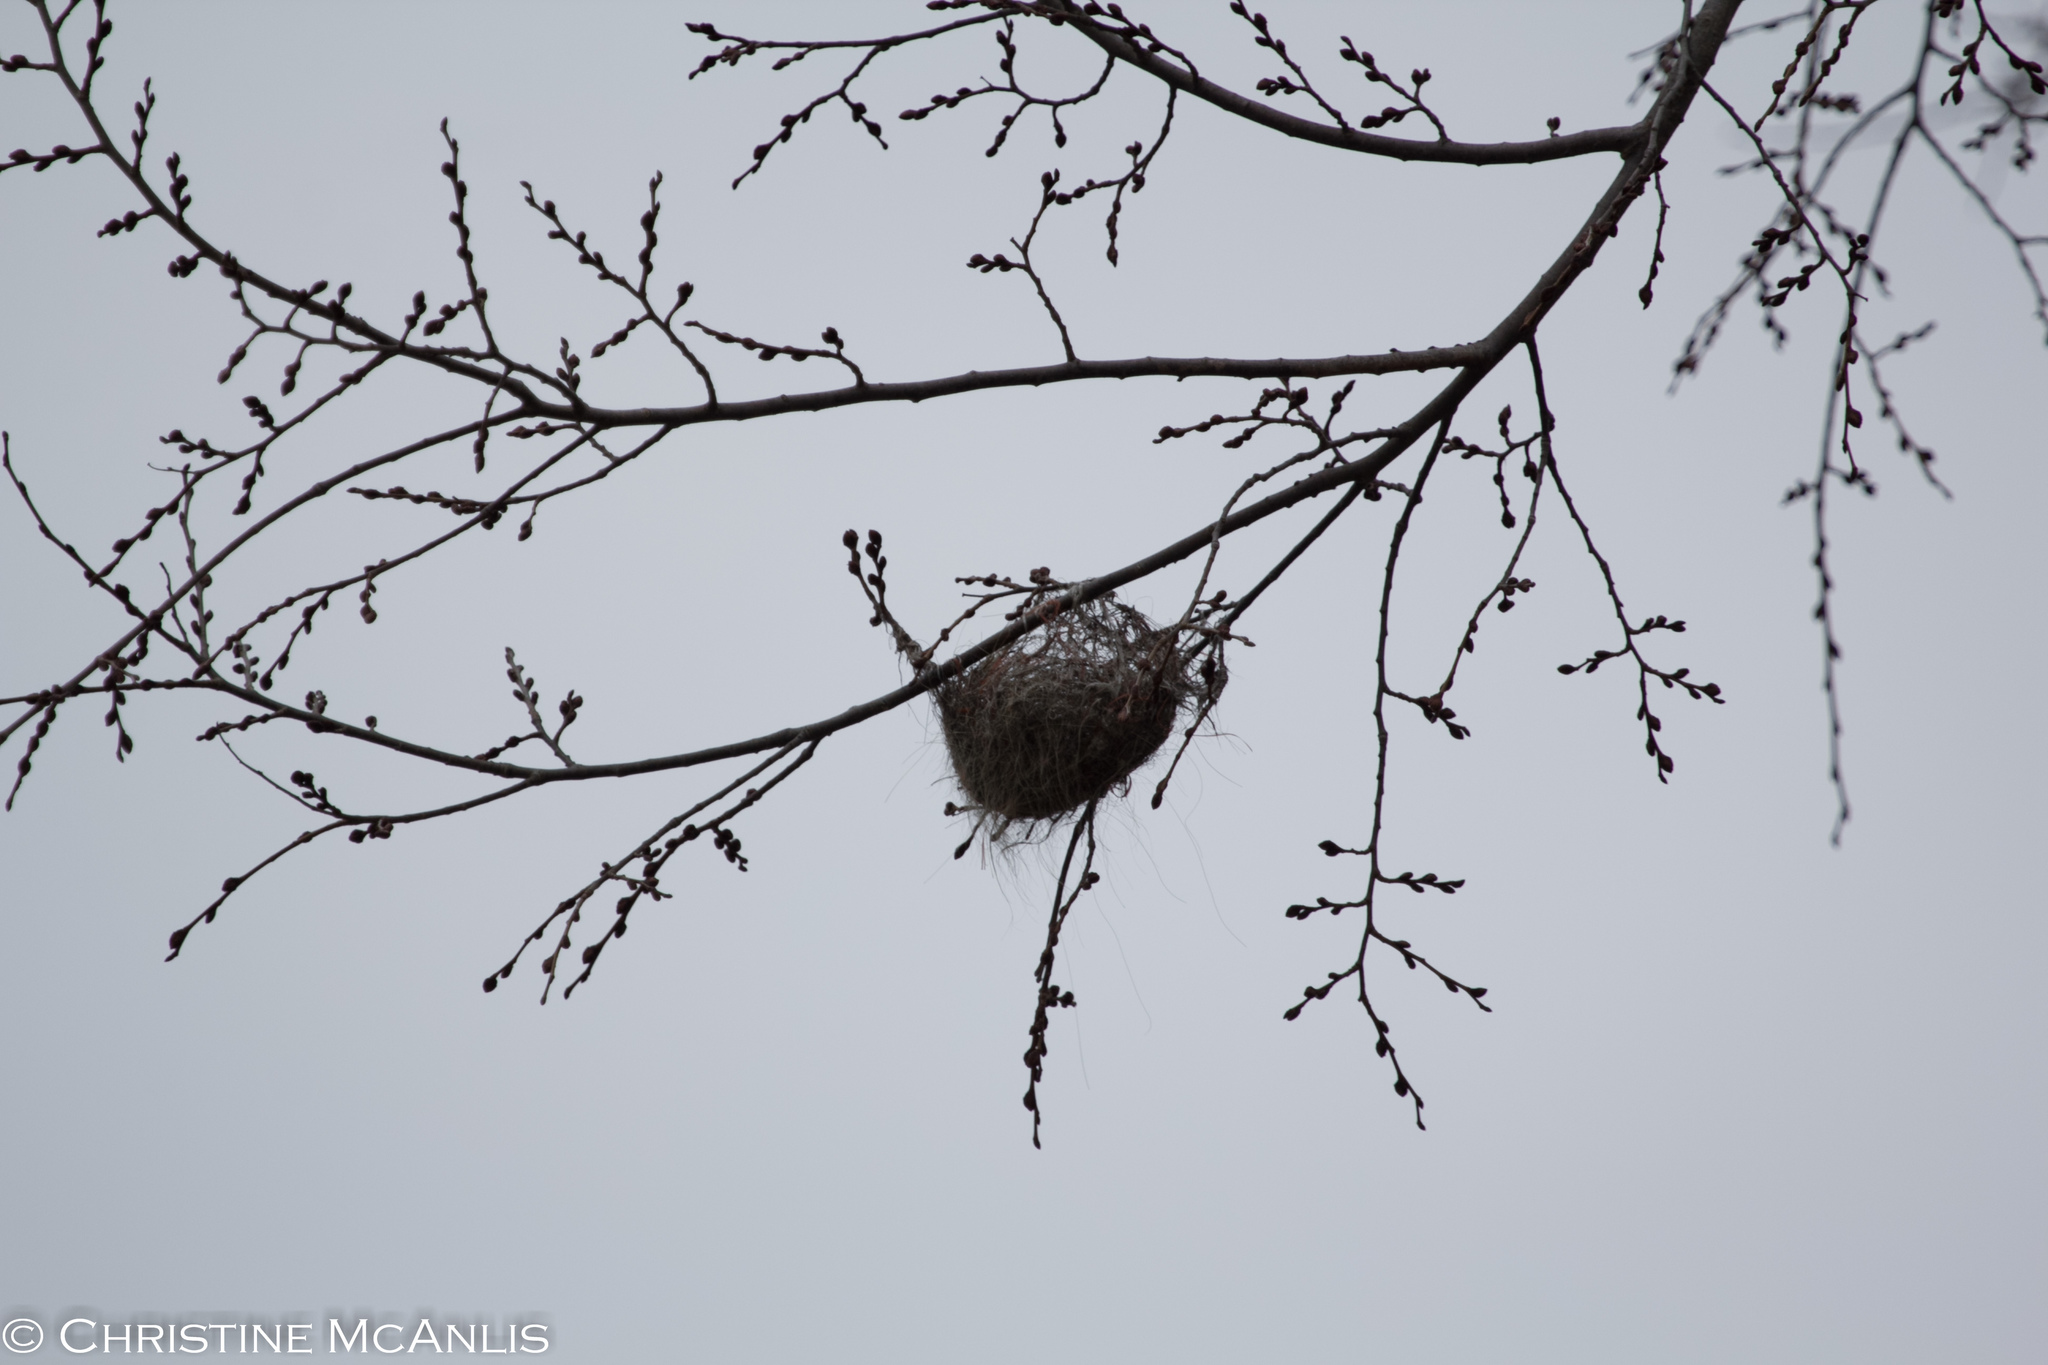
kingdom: Animalia
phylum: Chordata
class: Aves
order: Passeriformes
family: Icteridae
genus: Icterus
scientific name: Icterus galbula
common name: Baltimore oriole
